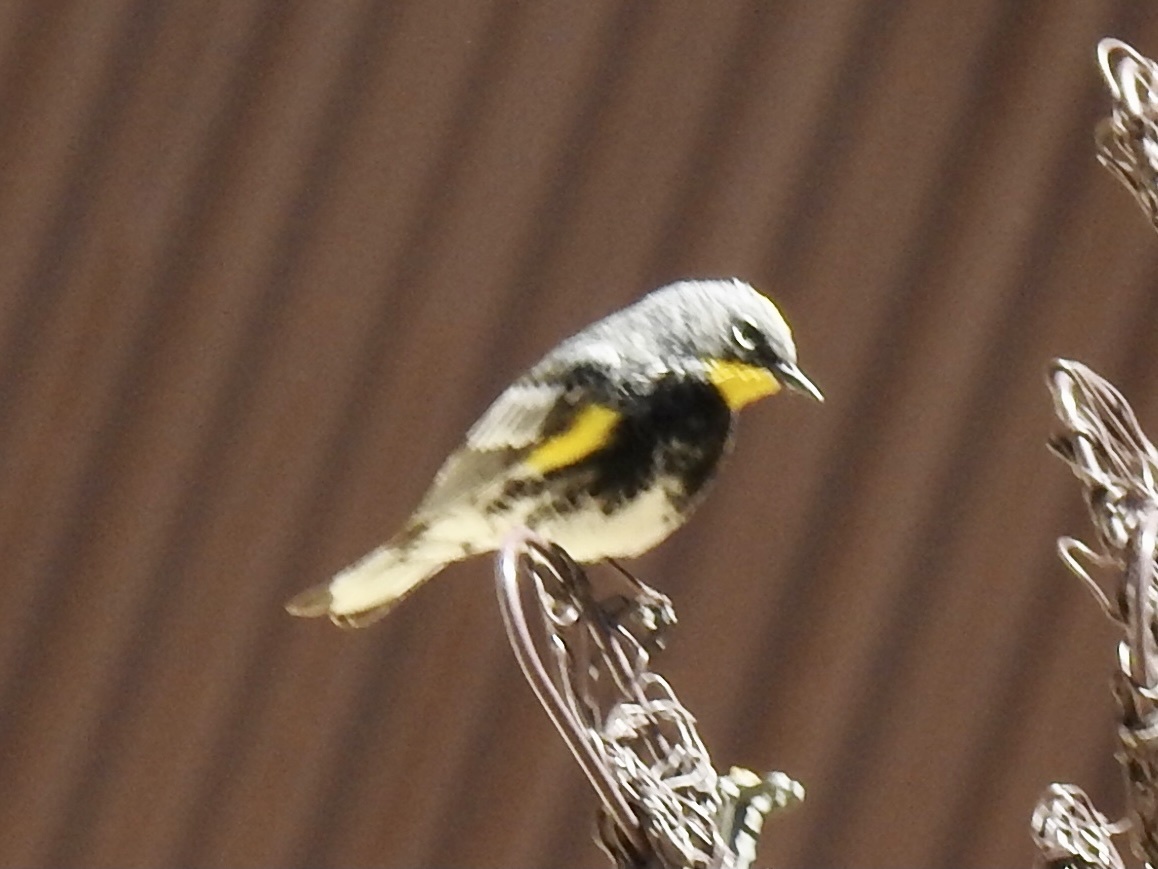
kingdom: Animalia
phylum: Chordata
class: Aves
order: Passeriformes
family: Parulidae
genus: Setophaga
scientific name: Setophaga coronata
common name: Myrtle warbler
